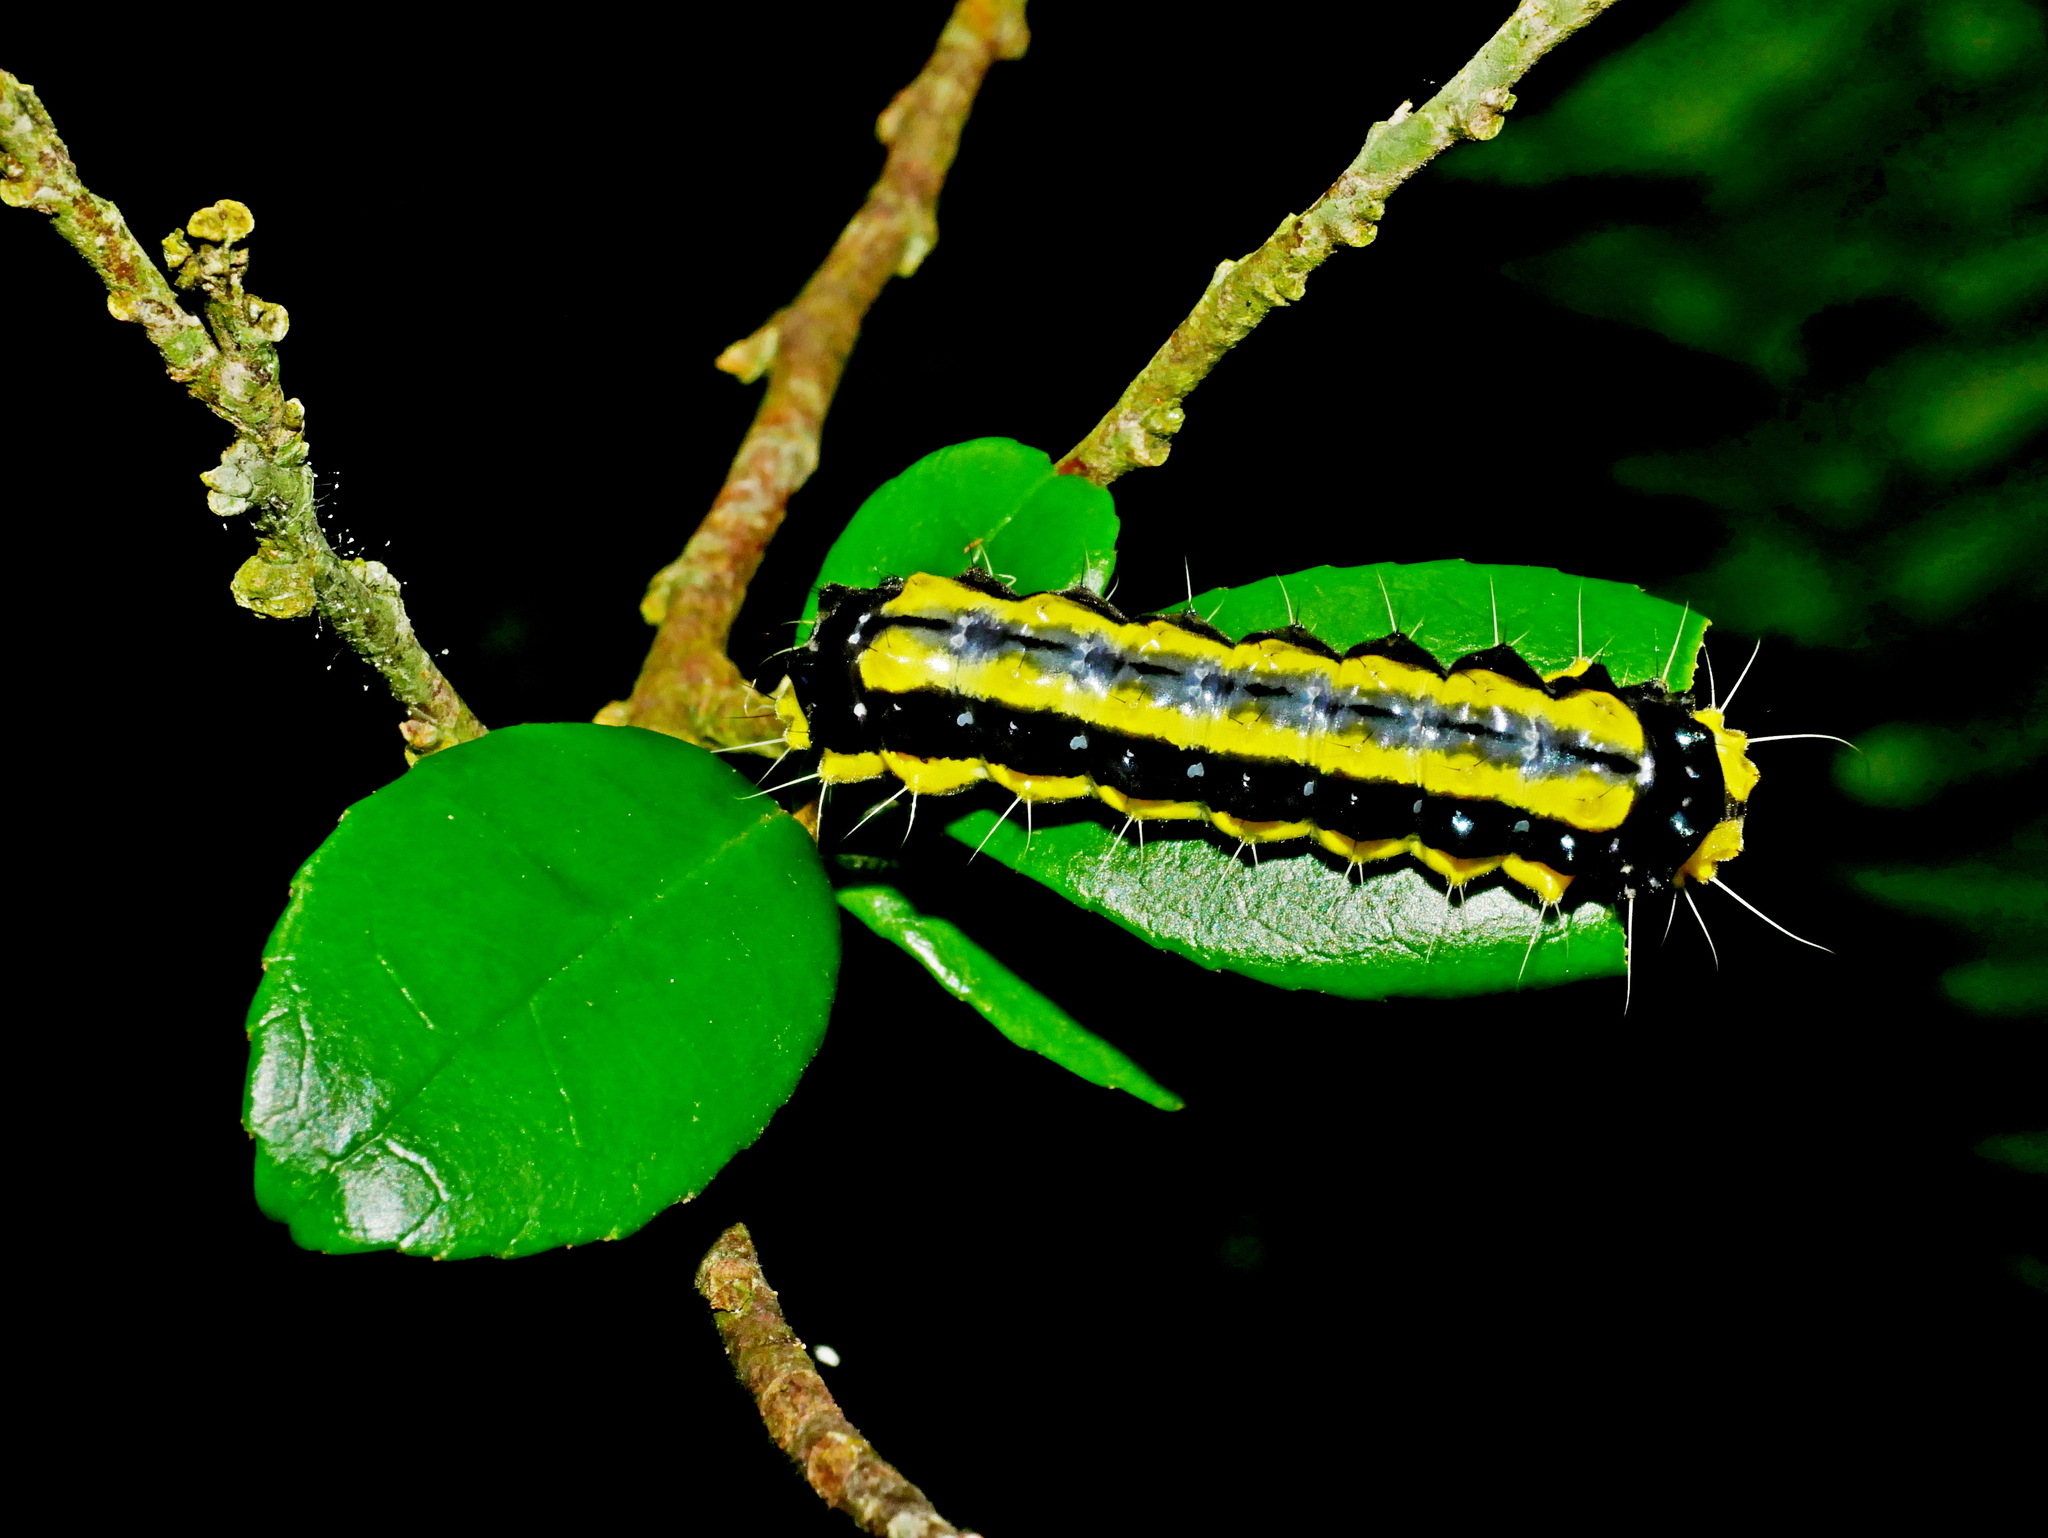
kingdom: Animalia
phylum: Arthropoda
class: Insecta
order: Lepidoptera
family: Zygaenidae
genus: Pidorus
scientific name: Pidorus glaucopis
